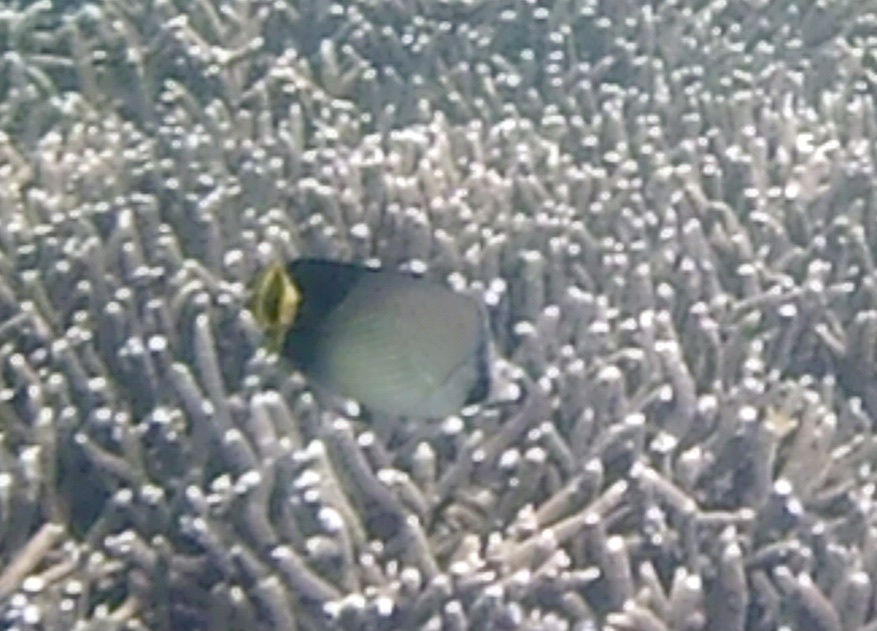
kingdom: Animalia
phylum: Chordata
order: Perciformes
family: Chaetodontidae
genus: Chaetodon
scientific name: Chaetodon decussatus
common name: Indian vagabond butterflyfish
